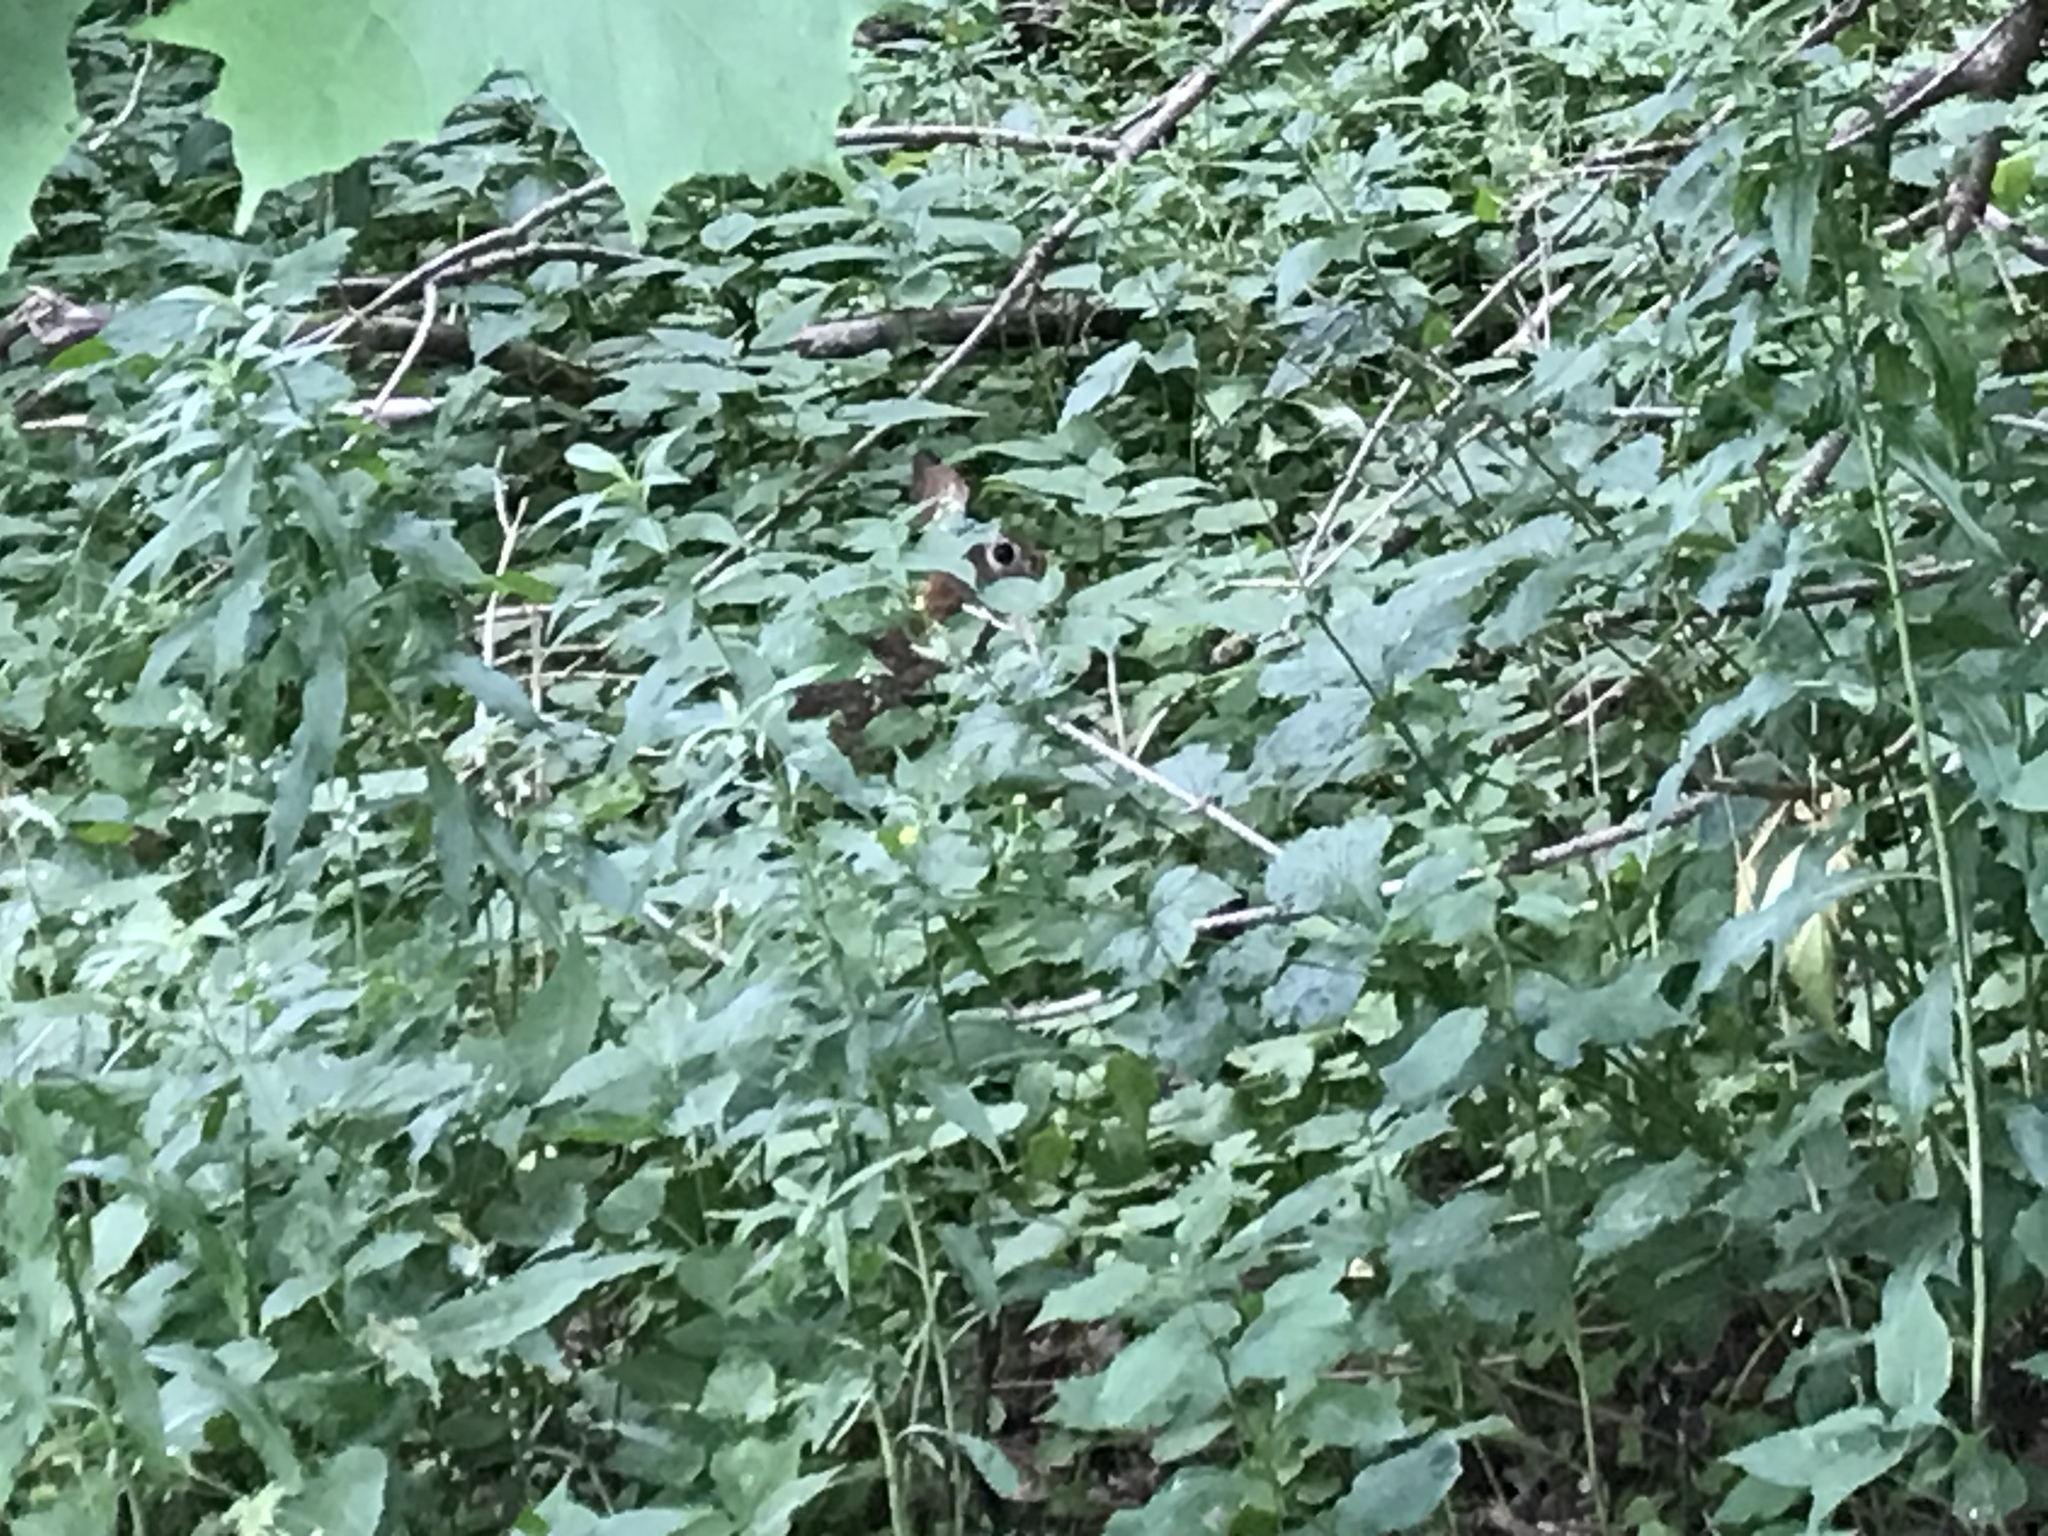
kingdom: Animalia
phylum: Chordata
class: Mammalia
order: Lagomorpha
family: Leporidae
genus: Sylvilagus
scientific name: Sylvilagus floridanus
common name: Eastern cottontail
